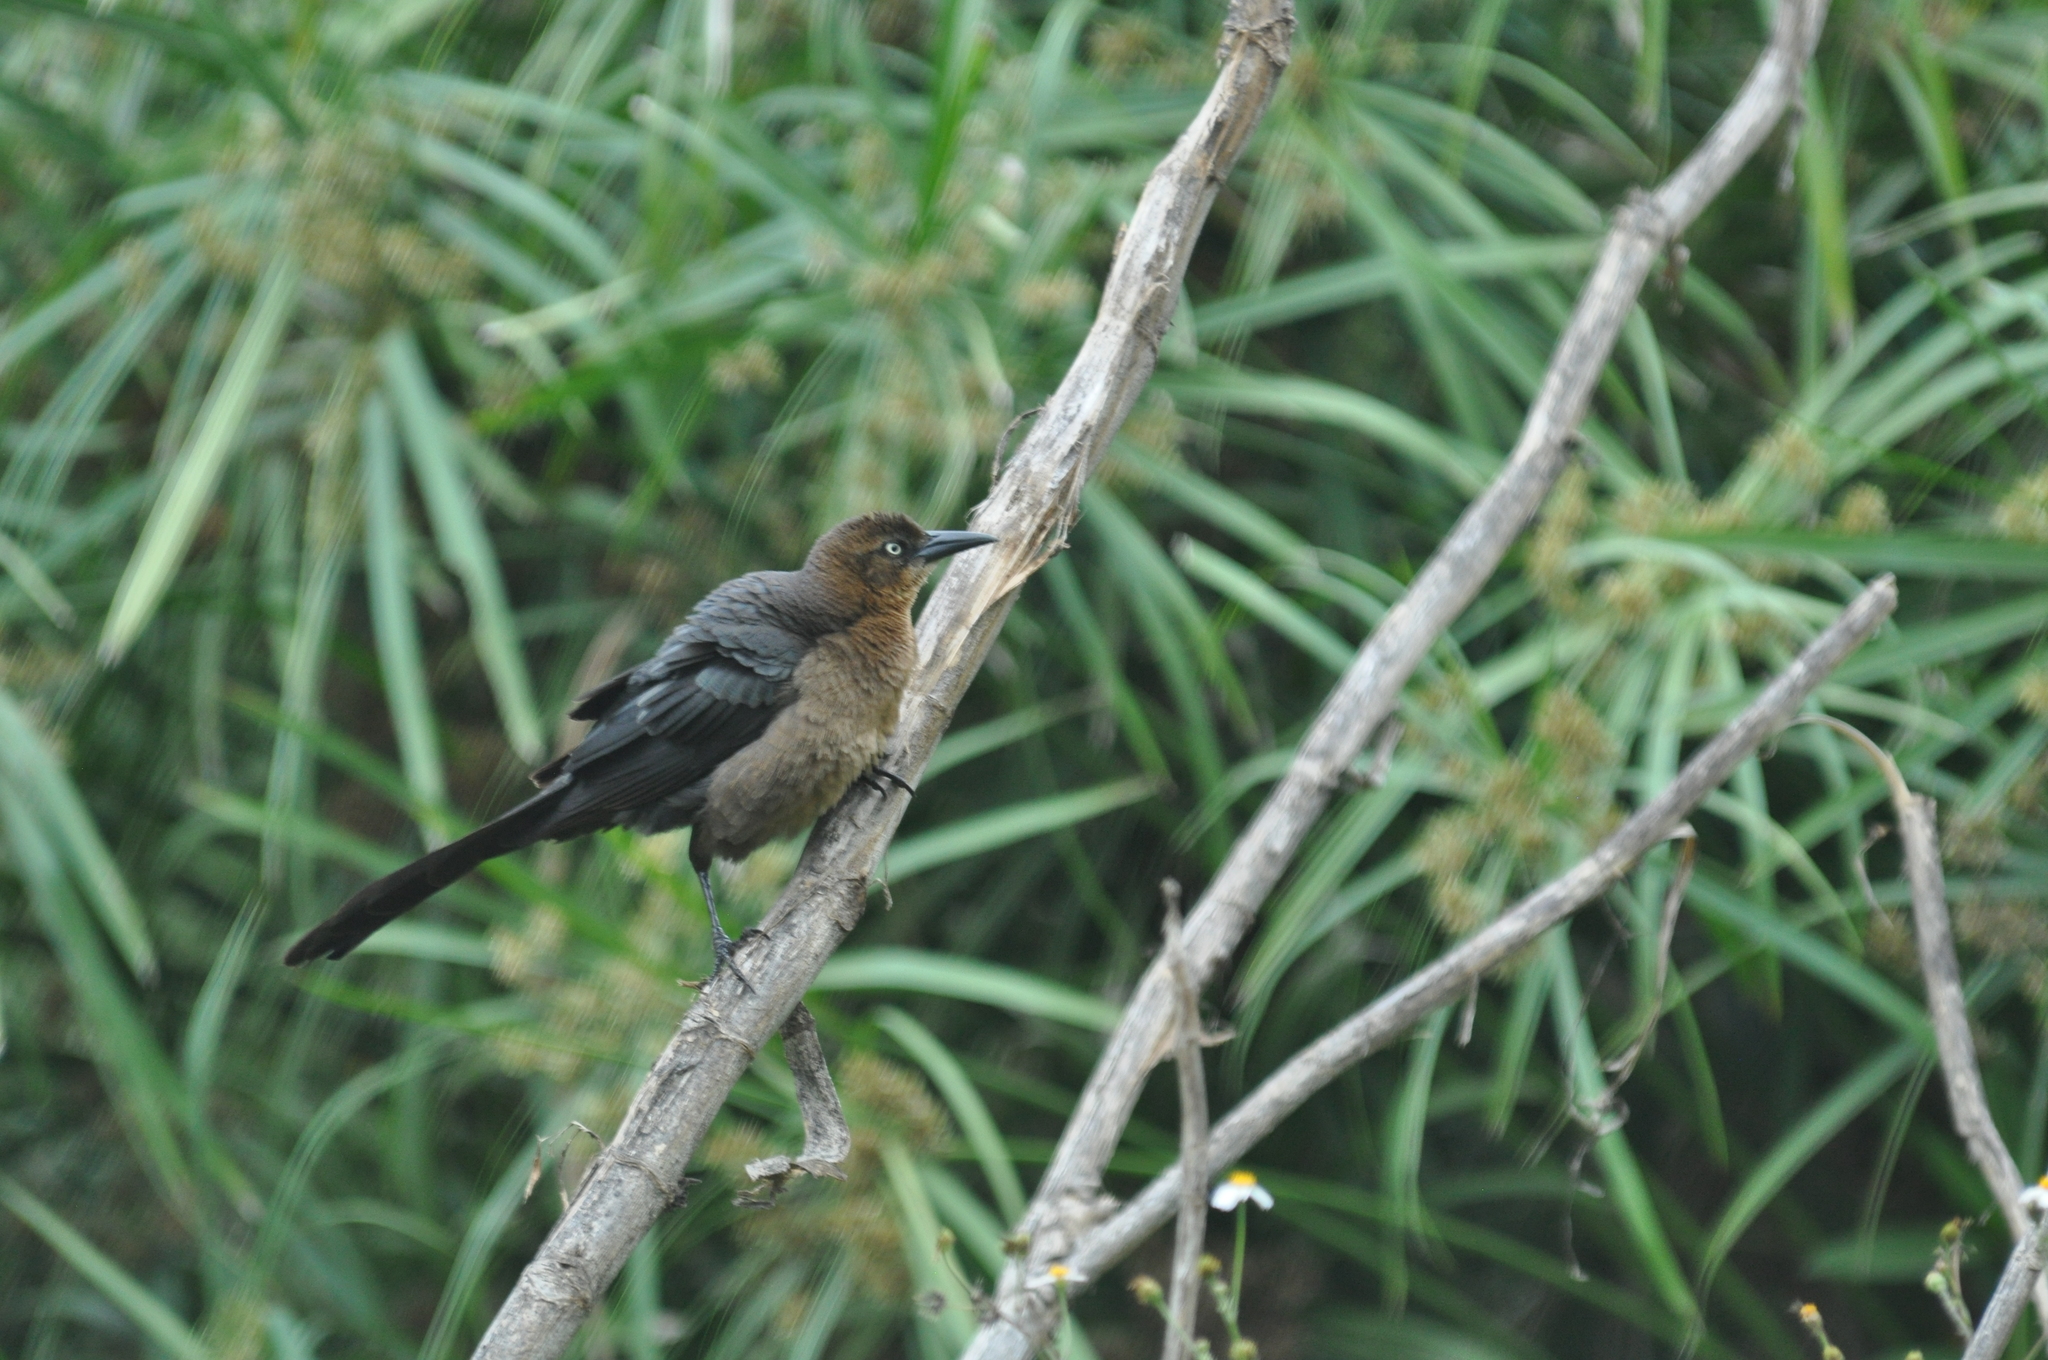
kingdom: Animalia
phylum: Chordata
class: Aves
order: Passeriformes
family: Icteridae
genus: Quiscalus
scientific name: Quiscalus mexicanus
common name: Great-tailed grackle
